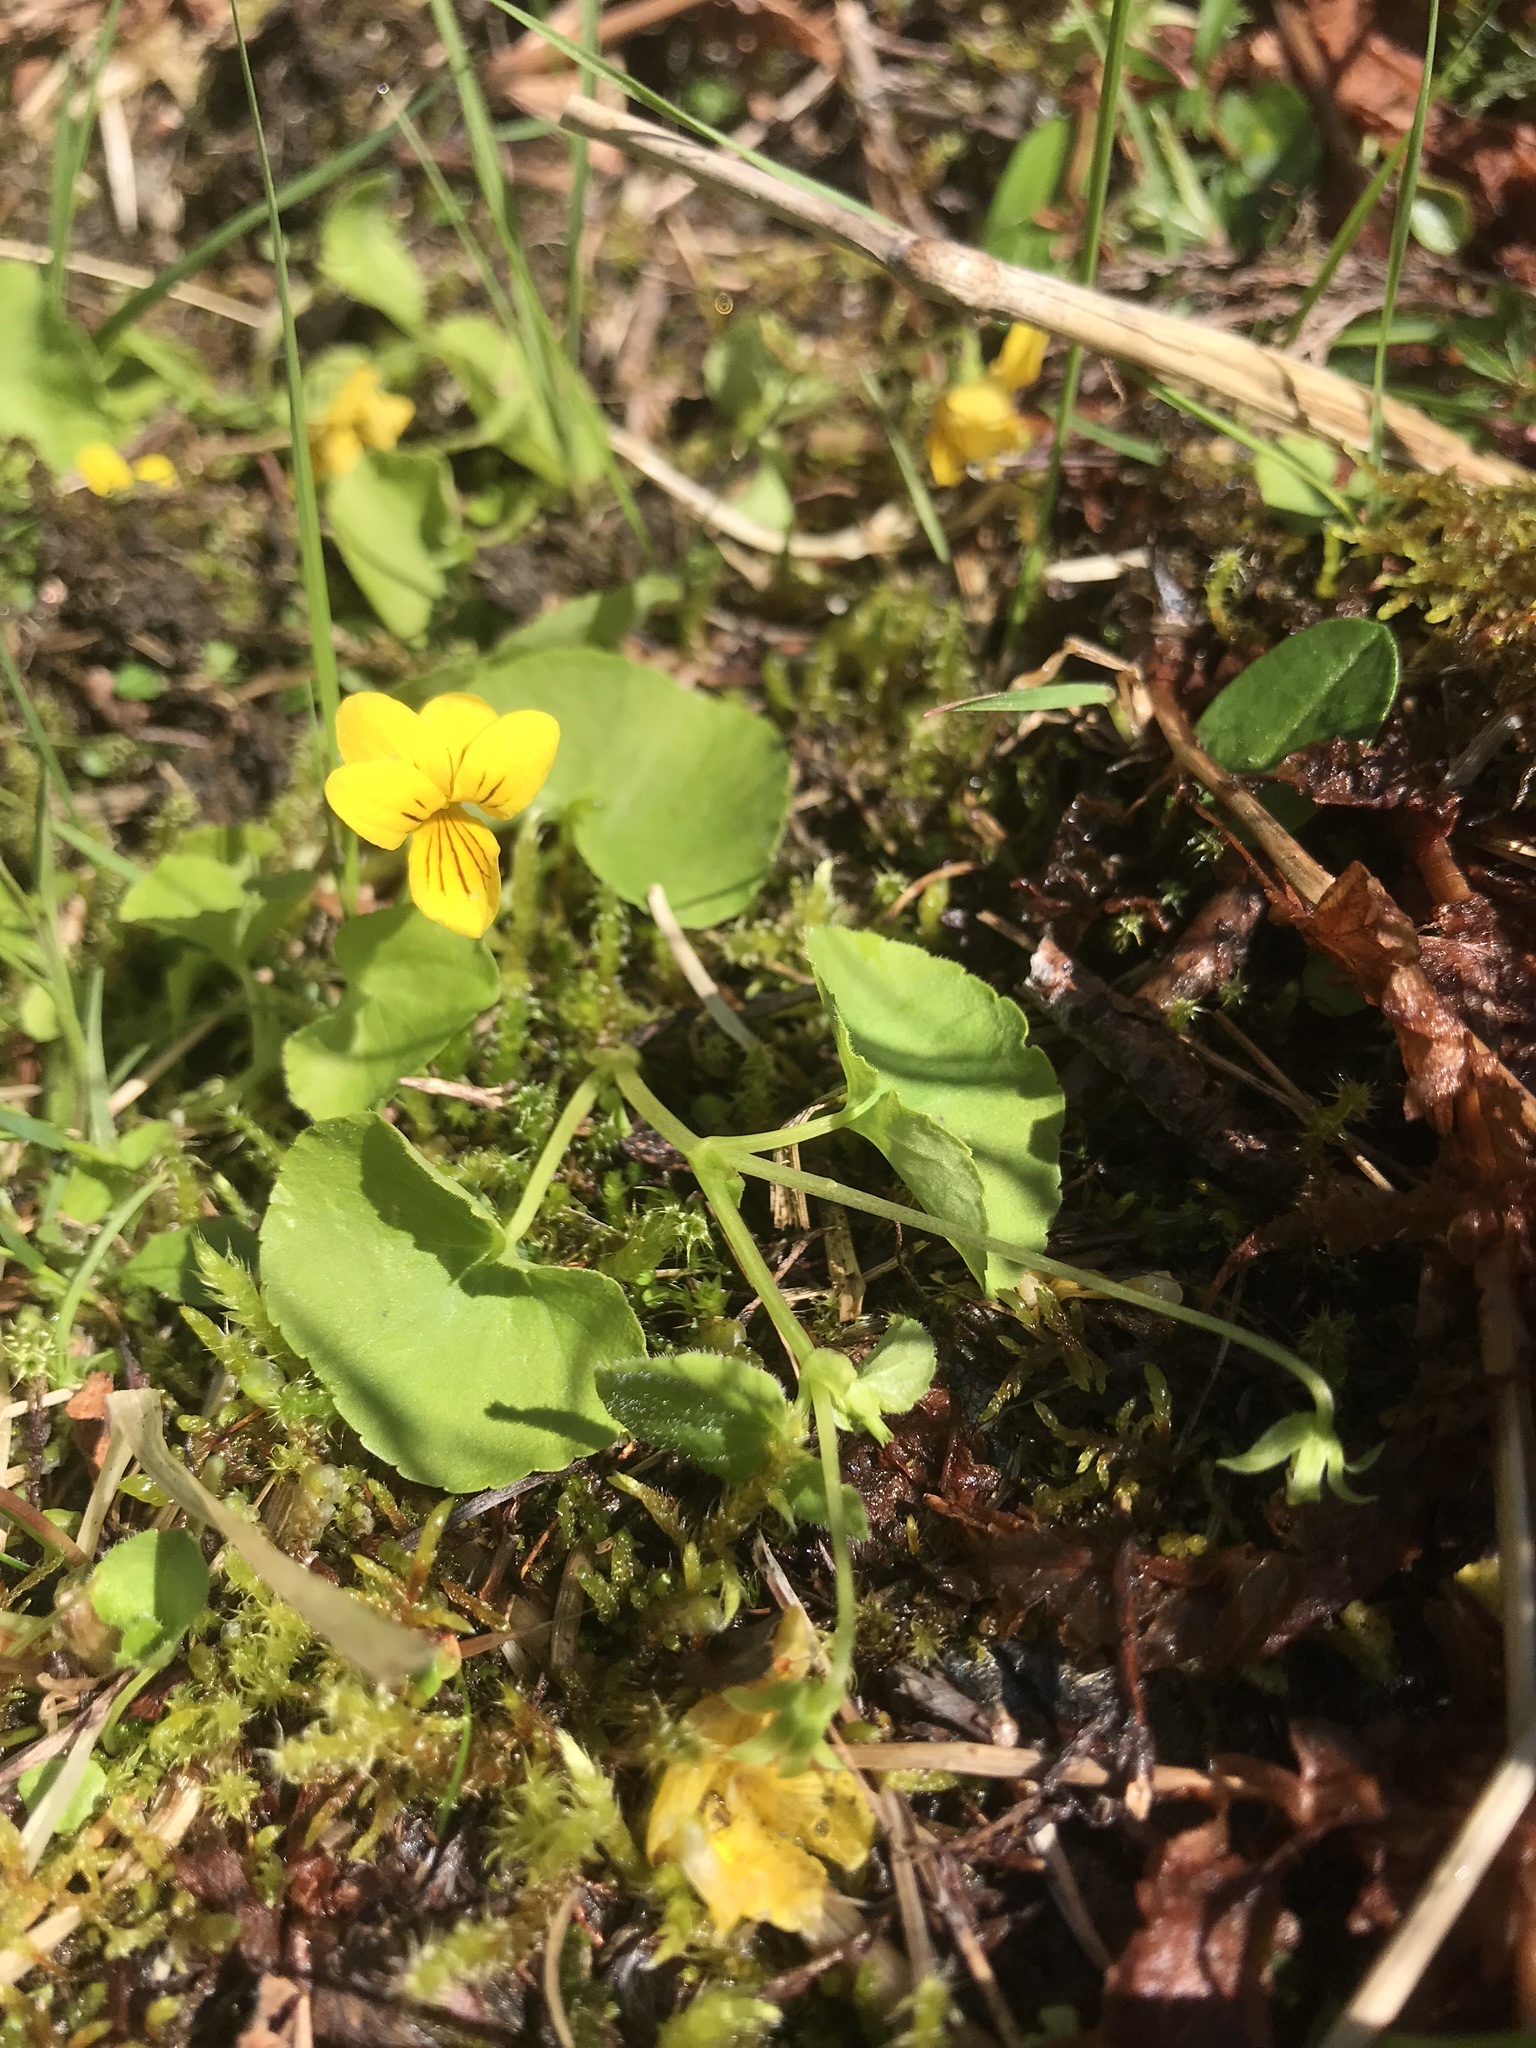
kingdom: Plantae
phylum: Tracheophyta
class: Magnoliopsida
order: Malpighiales
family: Violaceae
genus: Viola
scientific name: Viola biflora
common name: Alpine yellow violet
